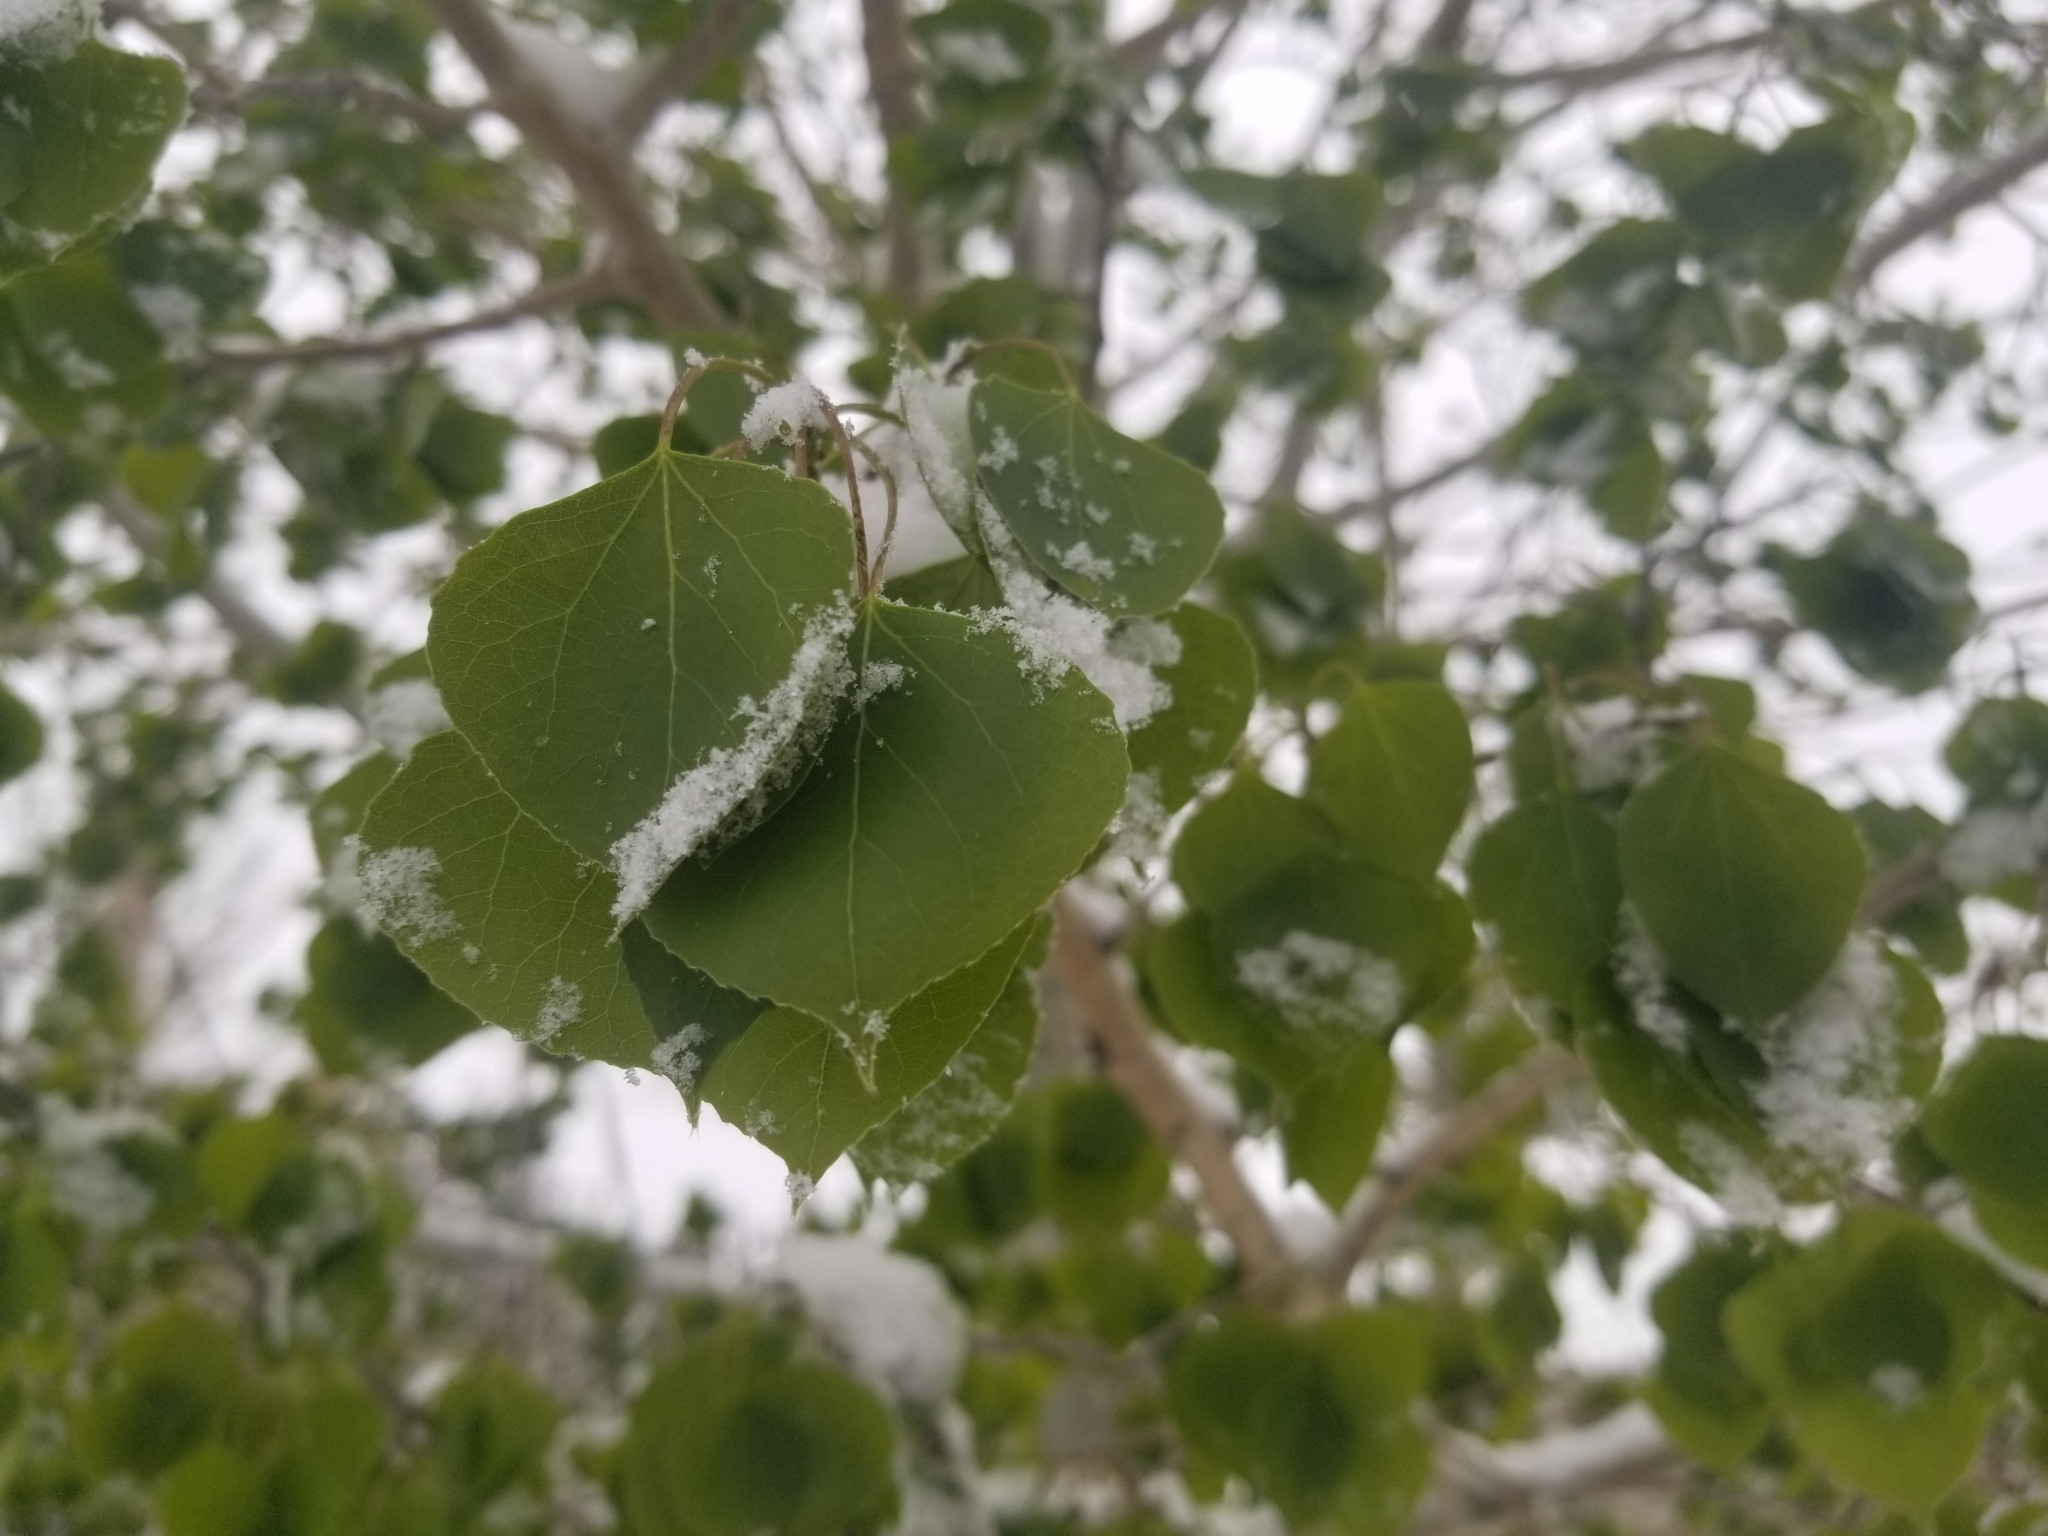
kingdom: Plantae
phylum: Tracheophyta
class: Magnoliopsida
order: Malpighiales
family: Salicaceae
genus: Populus
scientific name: Populus tremuloides
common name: Quaking aspen
